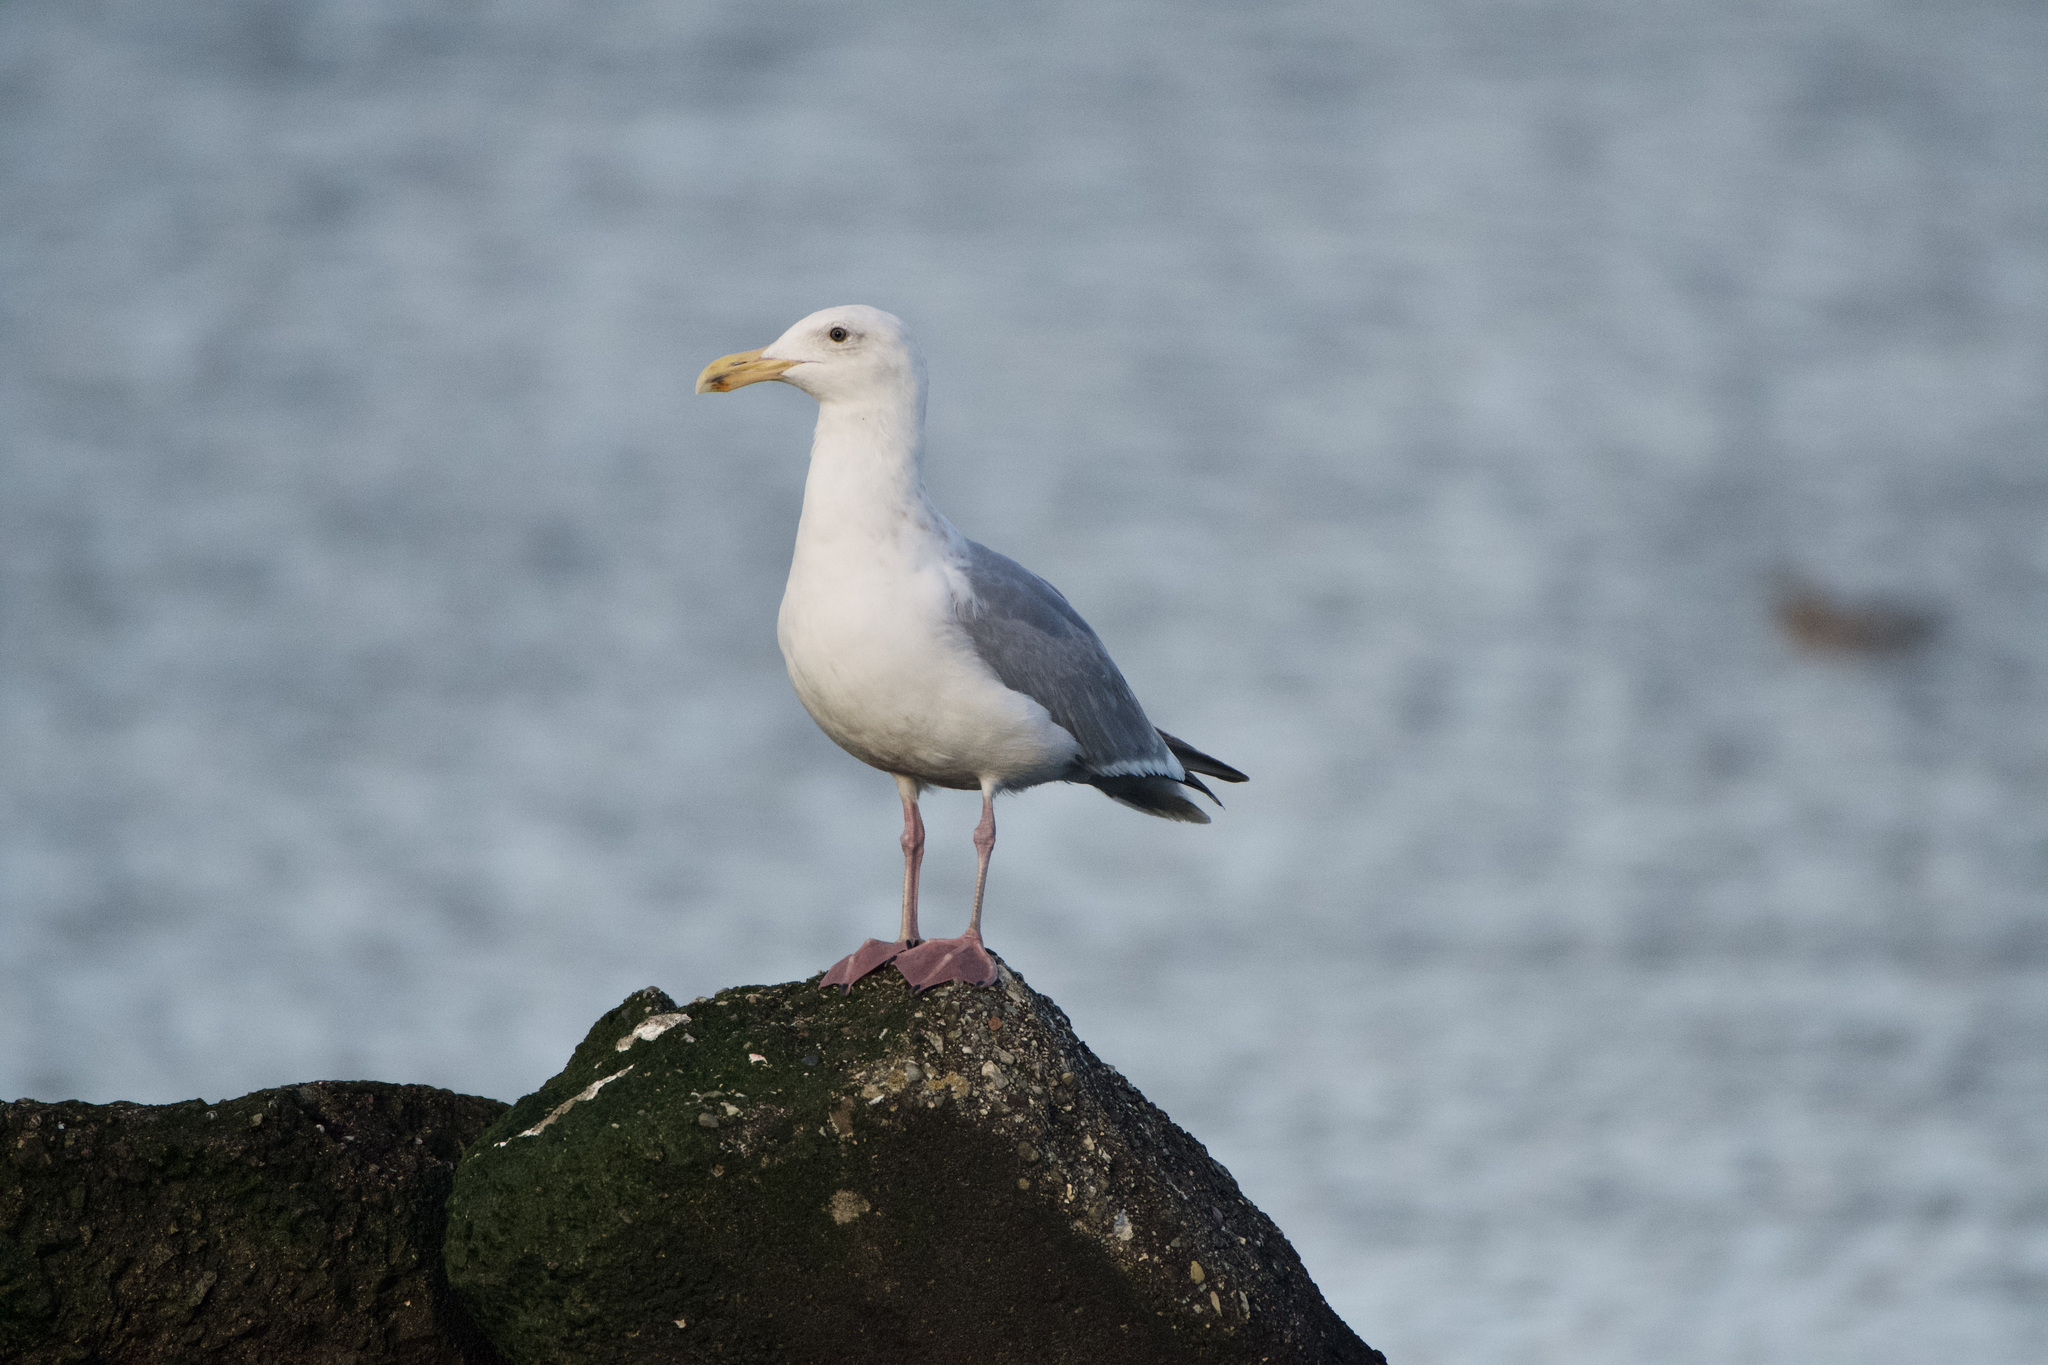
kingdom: Animalia
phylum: Chordata
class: Aves
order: Charadriiformes
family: Laridae
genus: Larus
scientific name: Larus
